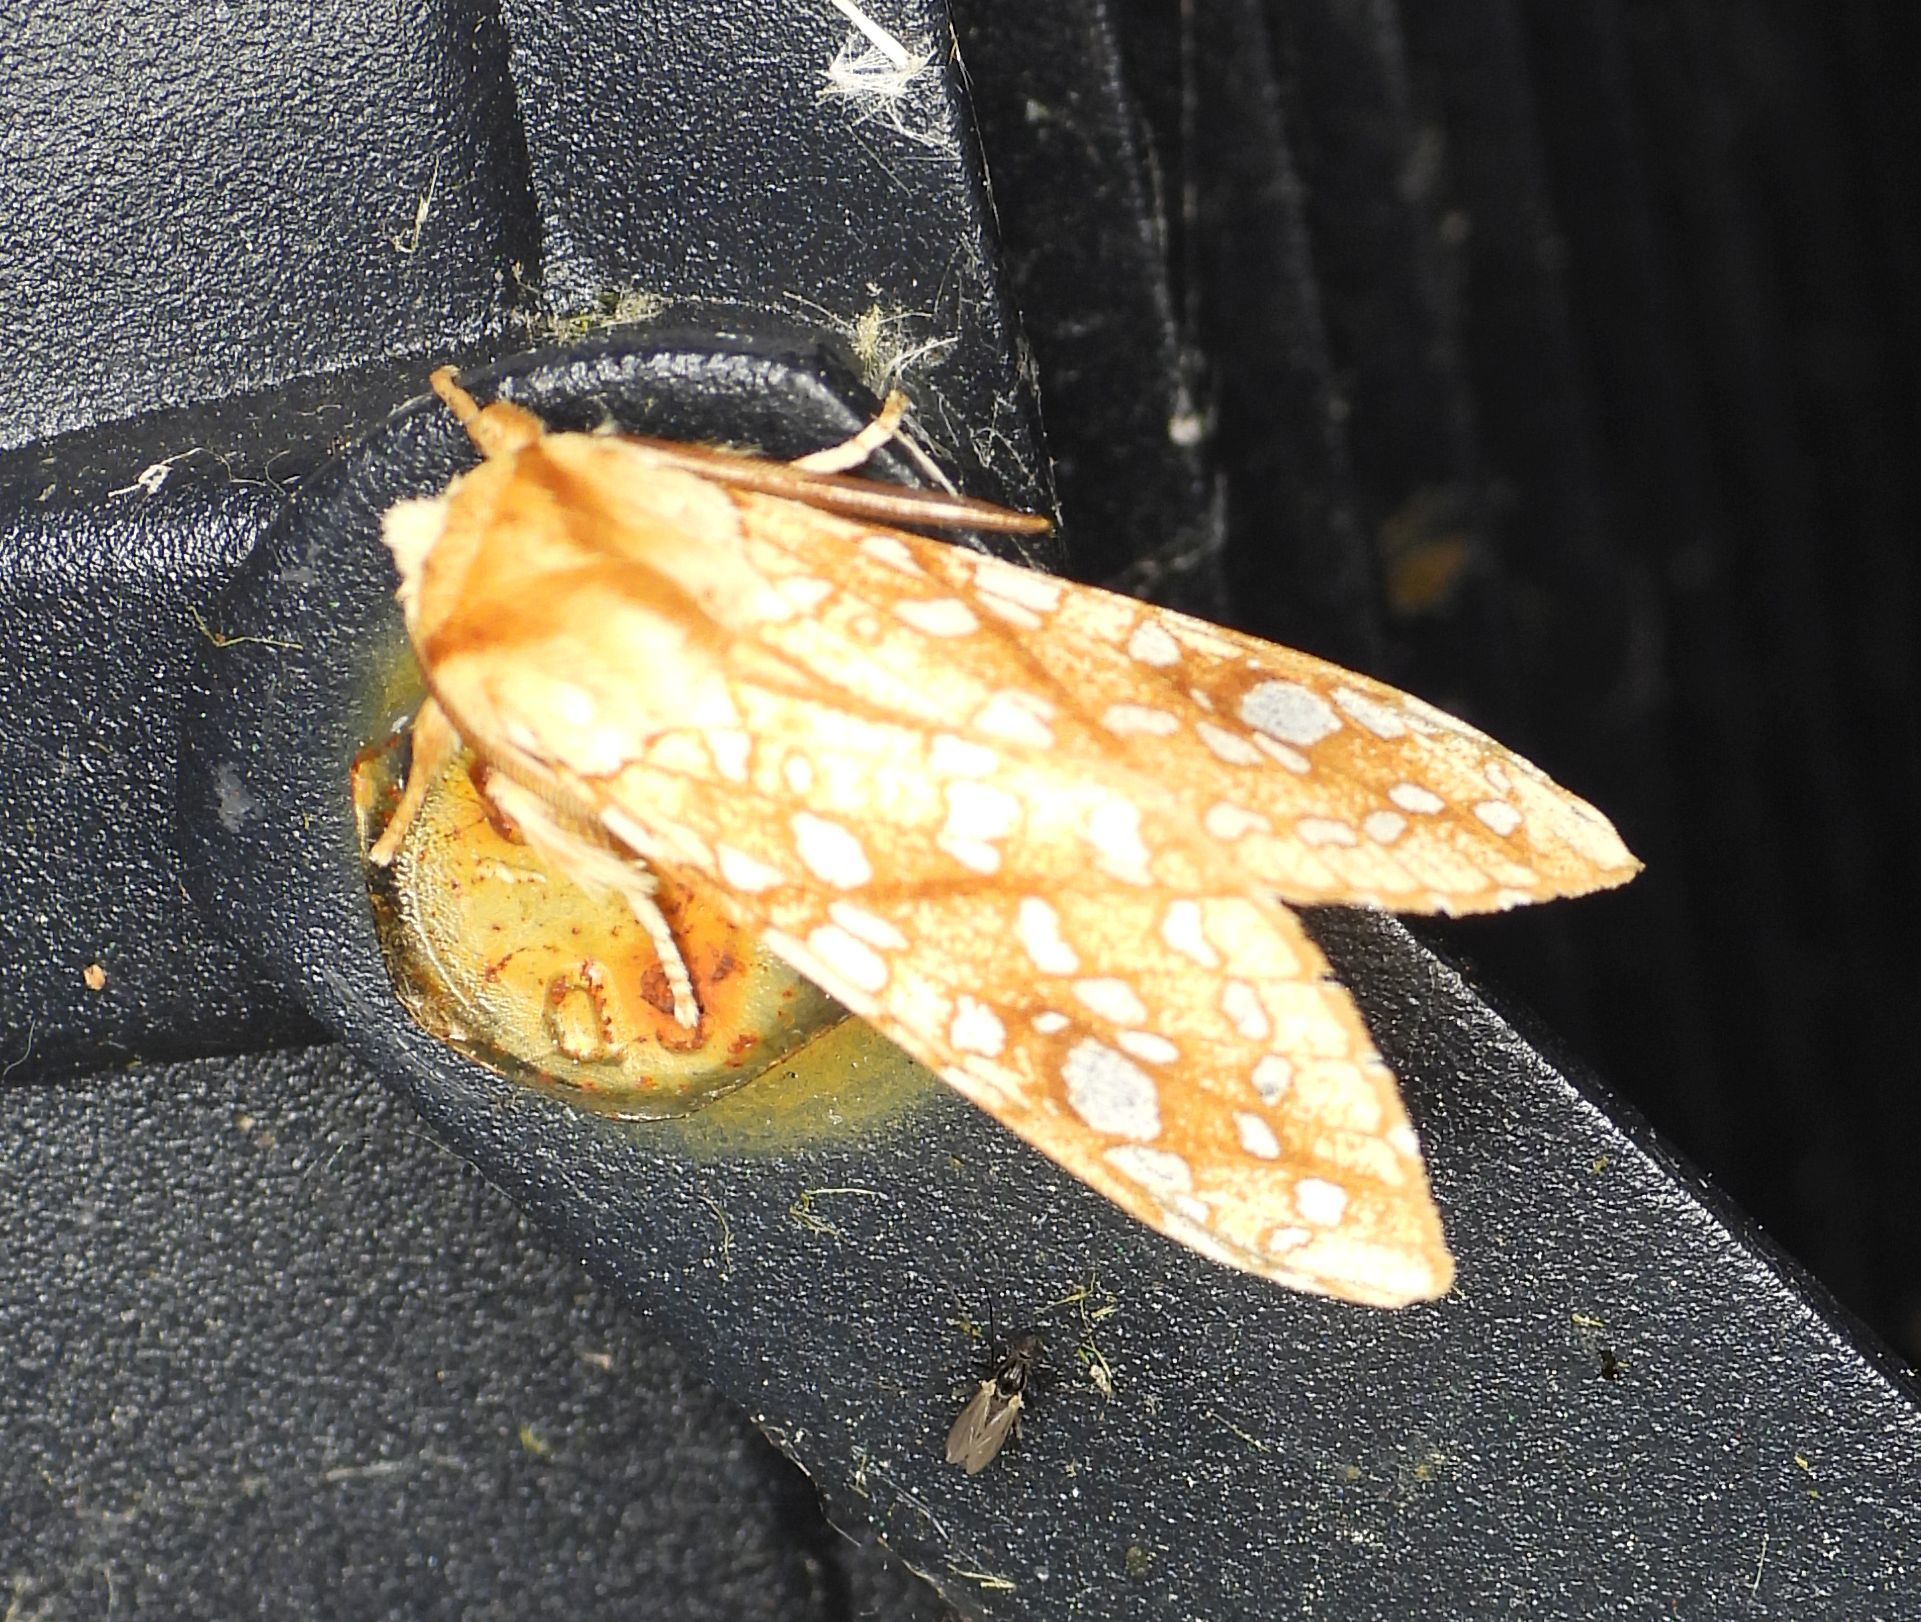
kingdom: Animalia
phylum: Arthropoda
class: Insecta
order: Lepidoptera
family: Erebidae
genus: Lophocampa
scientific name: Lophocampa caryae
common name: Hickory tussock moth
